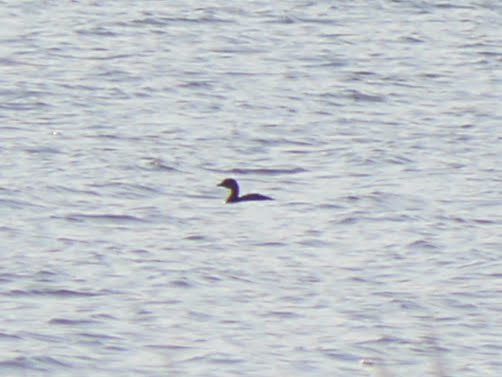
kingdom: Animalia
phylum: Chordata
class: Aves
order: Podicipediformes
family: Podicipedidae
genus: Podilymbus
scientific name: Podilymbus podiceps
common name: Pied-billed grebe
